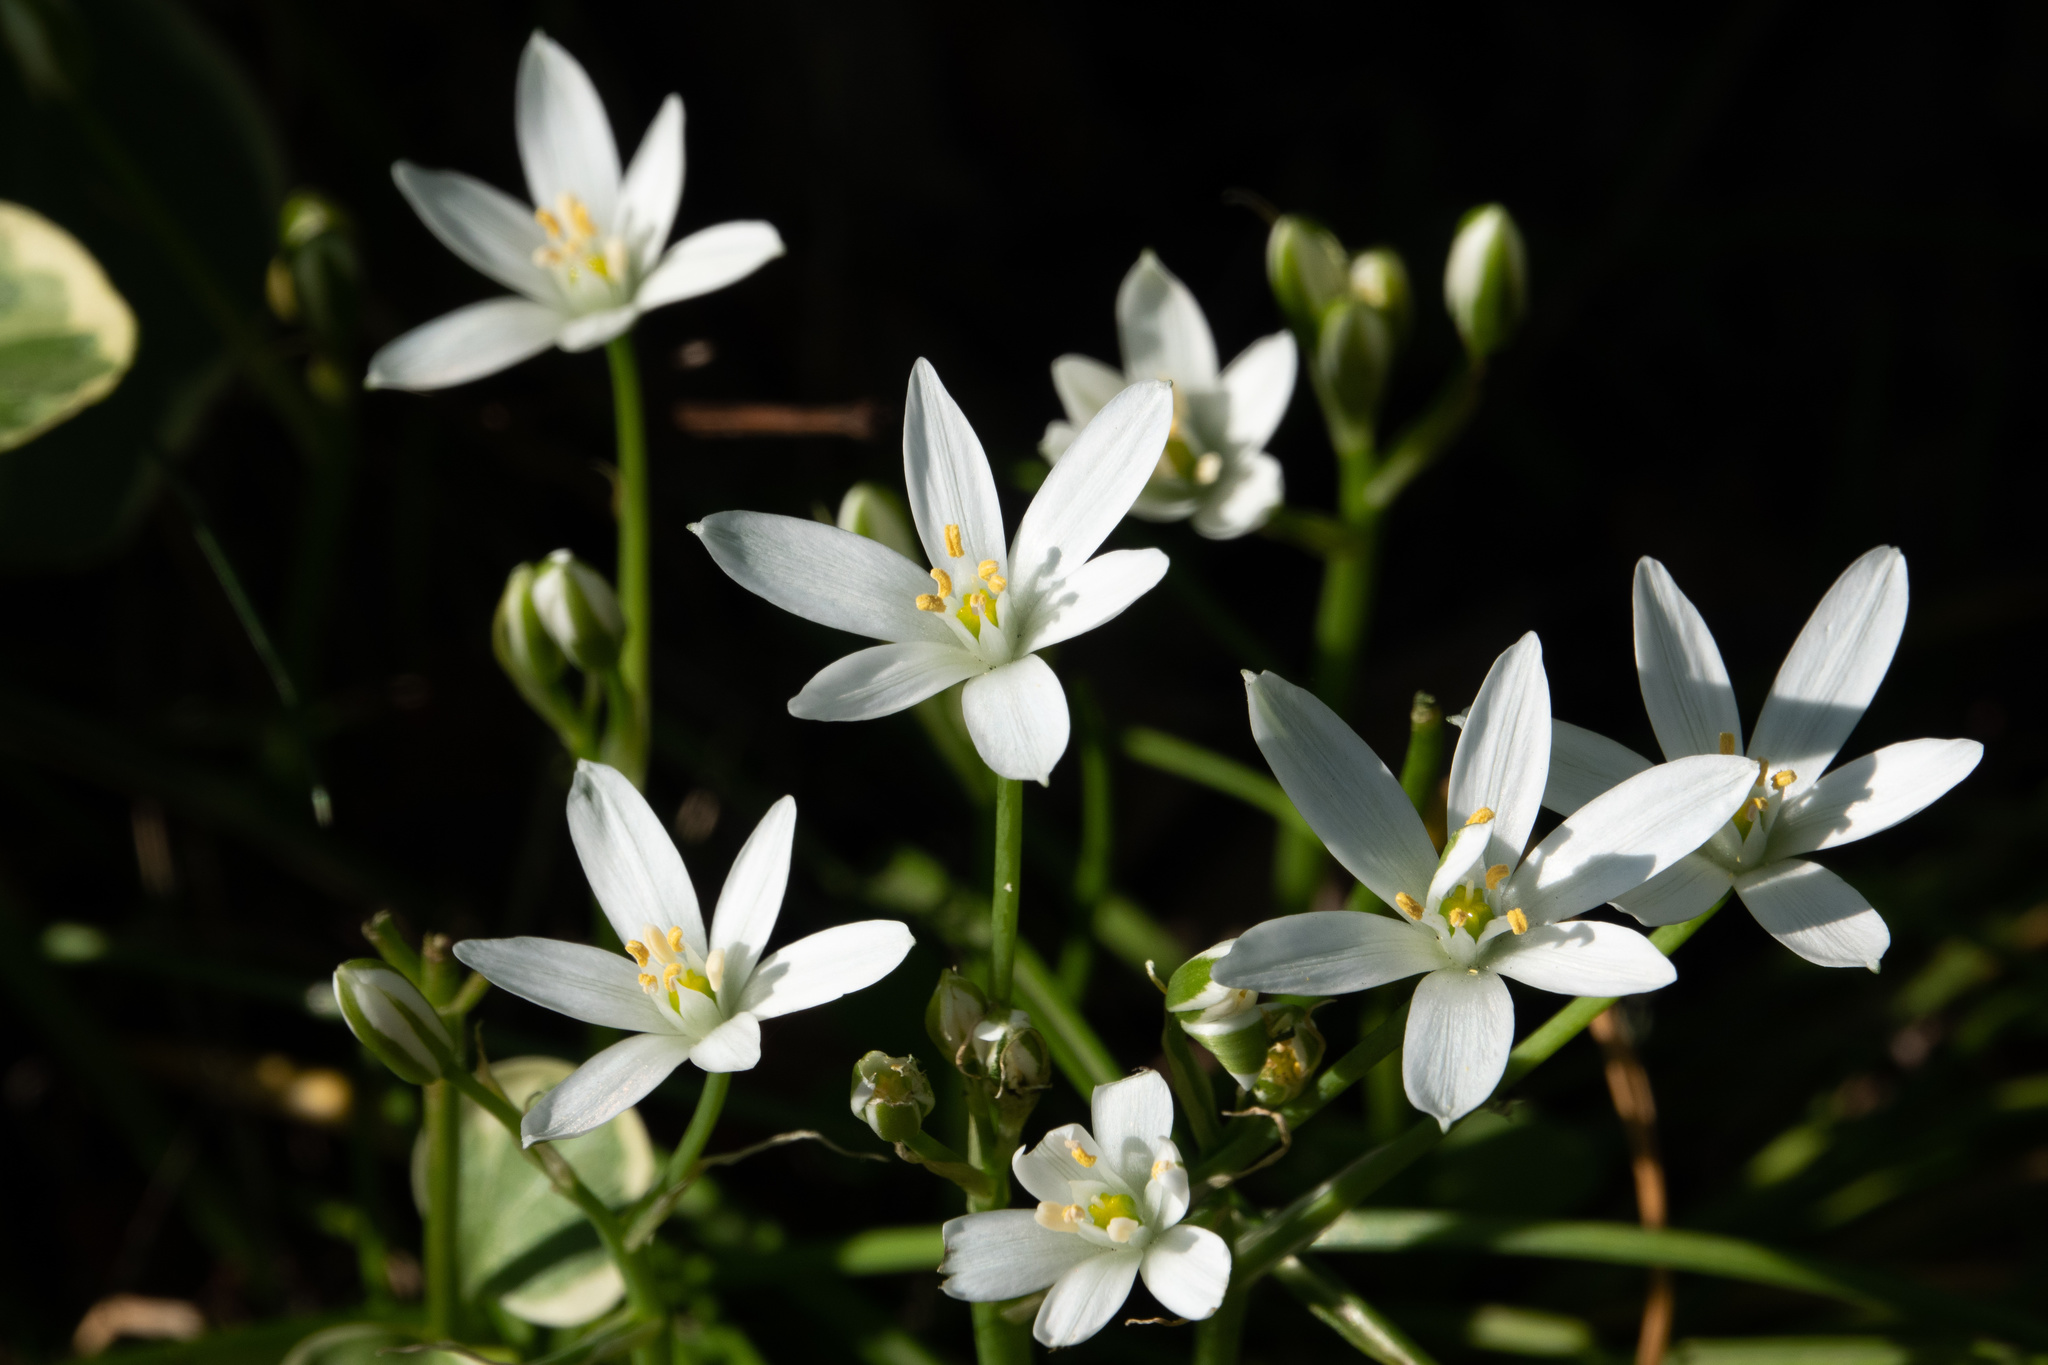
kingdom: Plantae
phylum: Tracheophyta
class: Liliopsida
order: Asparagales
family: Asparagaceae
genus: Ornithogalum
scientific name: Ornithogalum umbellatum
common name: Garden star-of-bethlehem
